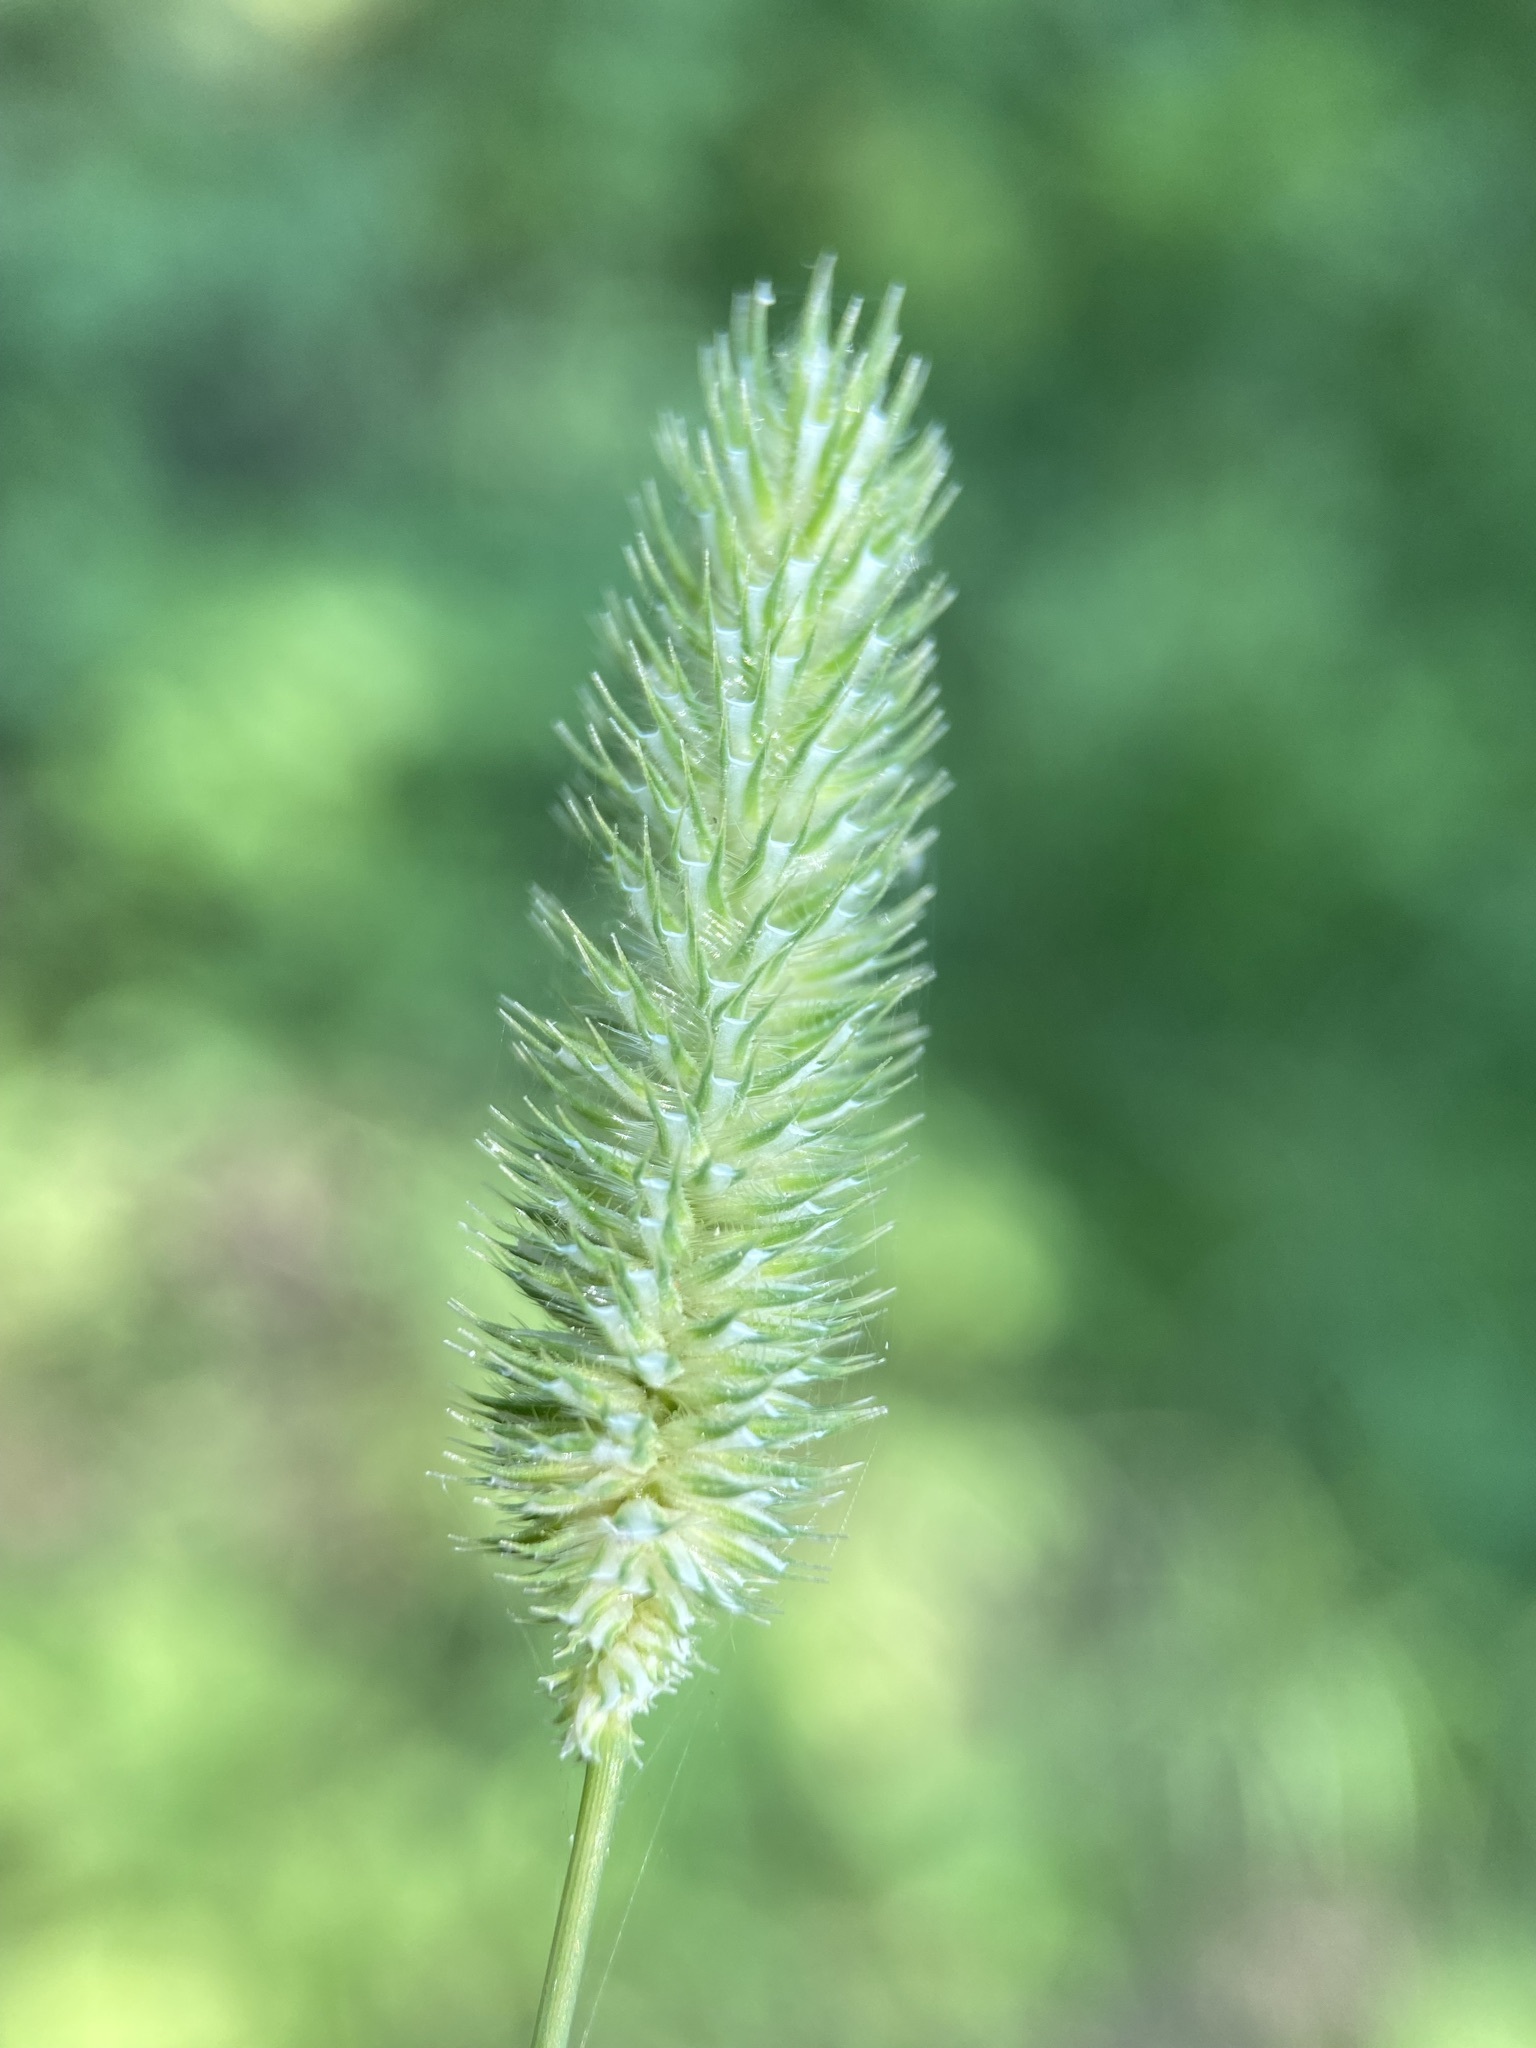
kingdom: Plantae
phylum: Tracheophyta
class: Liliopsida
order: Poales
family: Poaceae
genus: Phleum
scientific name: Phleum pratense
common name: Timothy grass
